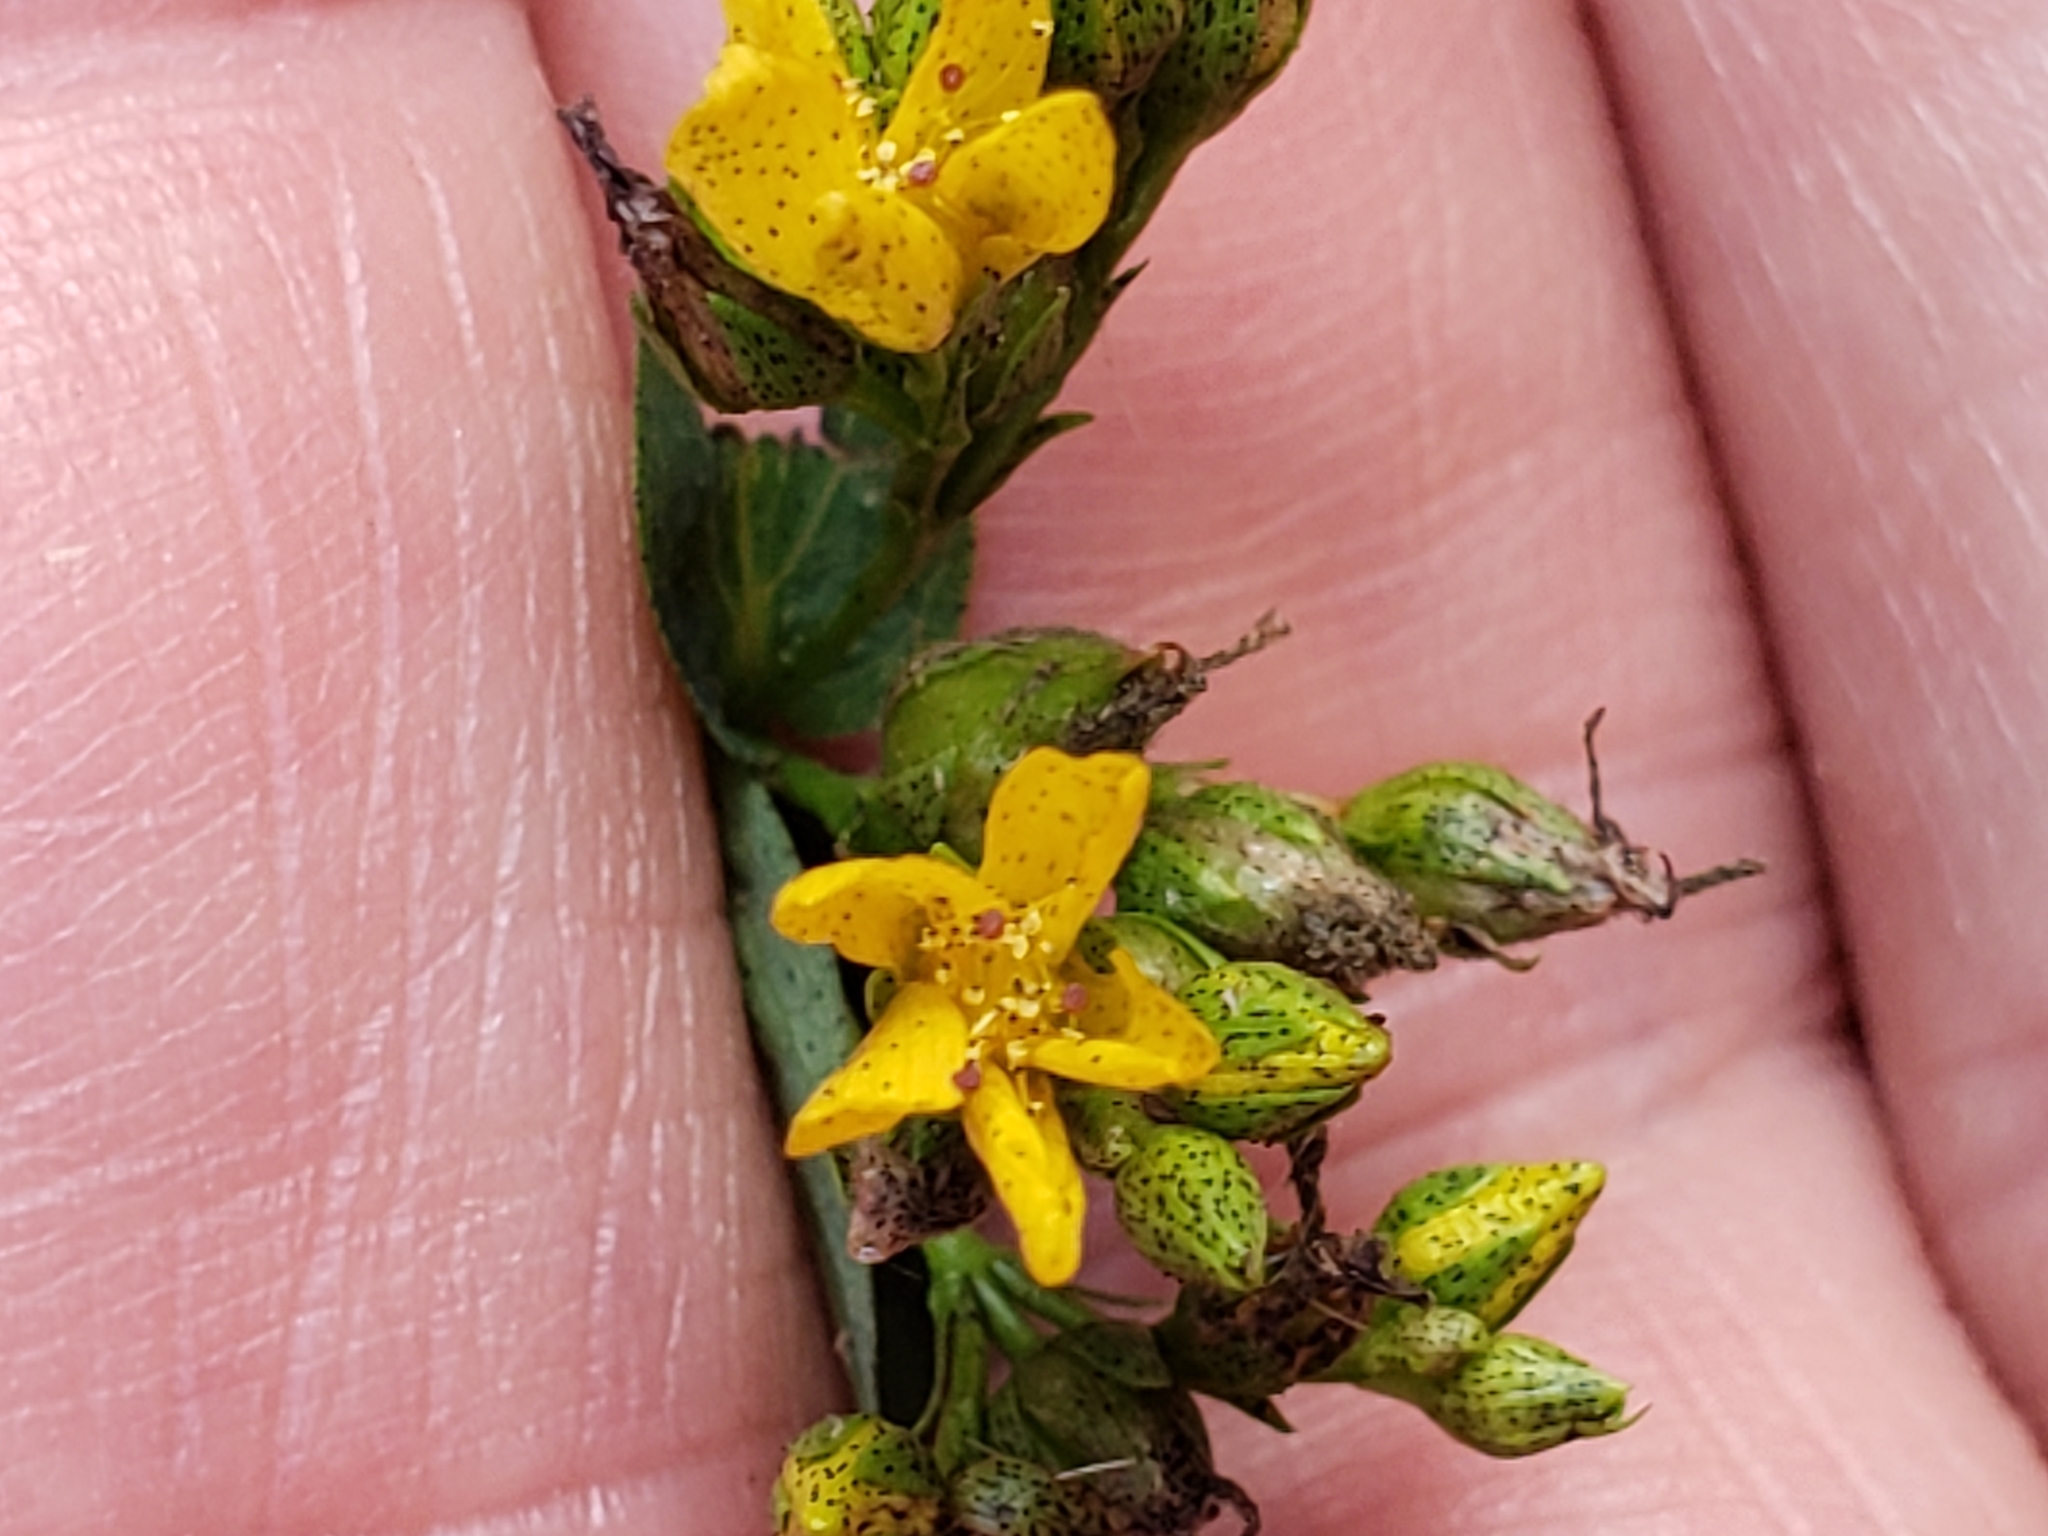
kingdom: Plantae
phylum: Tracheophyta
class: Magnoliopsida
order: Malpighiales
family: Hypericaceae
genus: Hypericum
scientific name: Hypericum punctatum
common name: Spotted st. john's-wort
